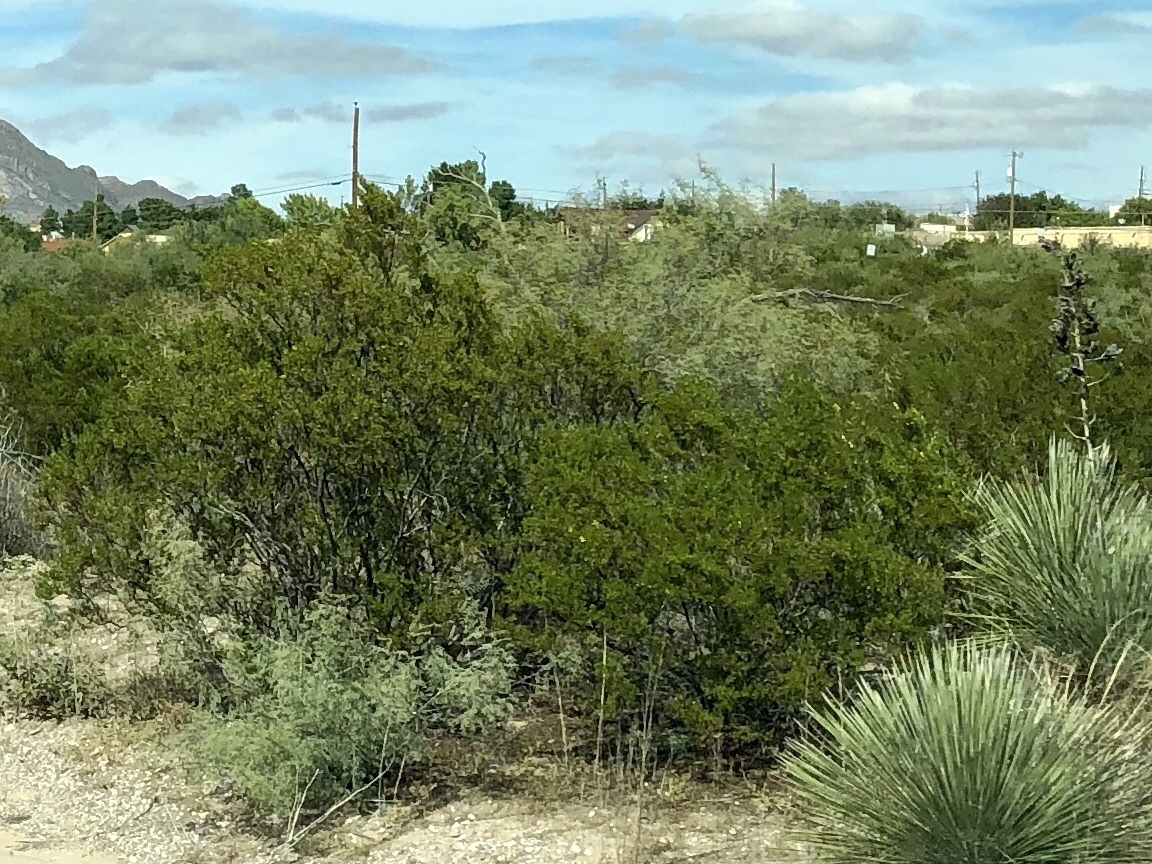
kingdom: Plantae
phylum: Tracheophyta
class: Magnoliopsida
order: Zygophyllales
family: Zygophyllaceae
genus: Larrea
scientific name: Larrea tridentata
